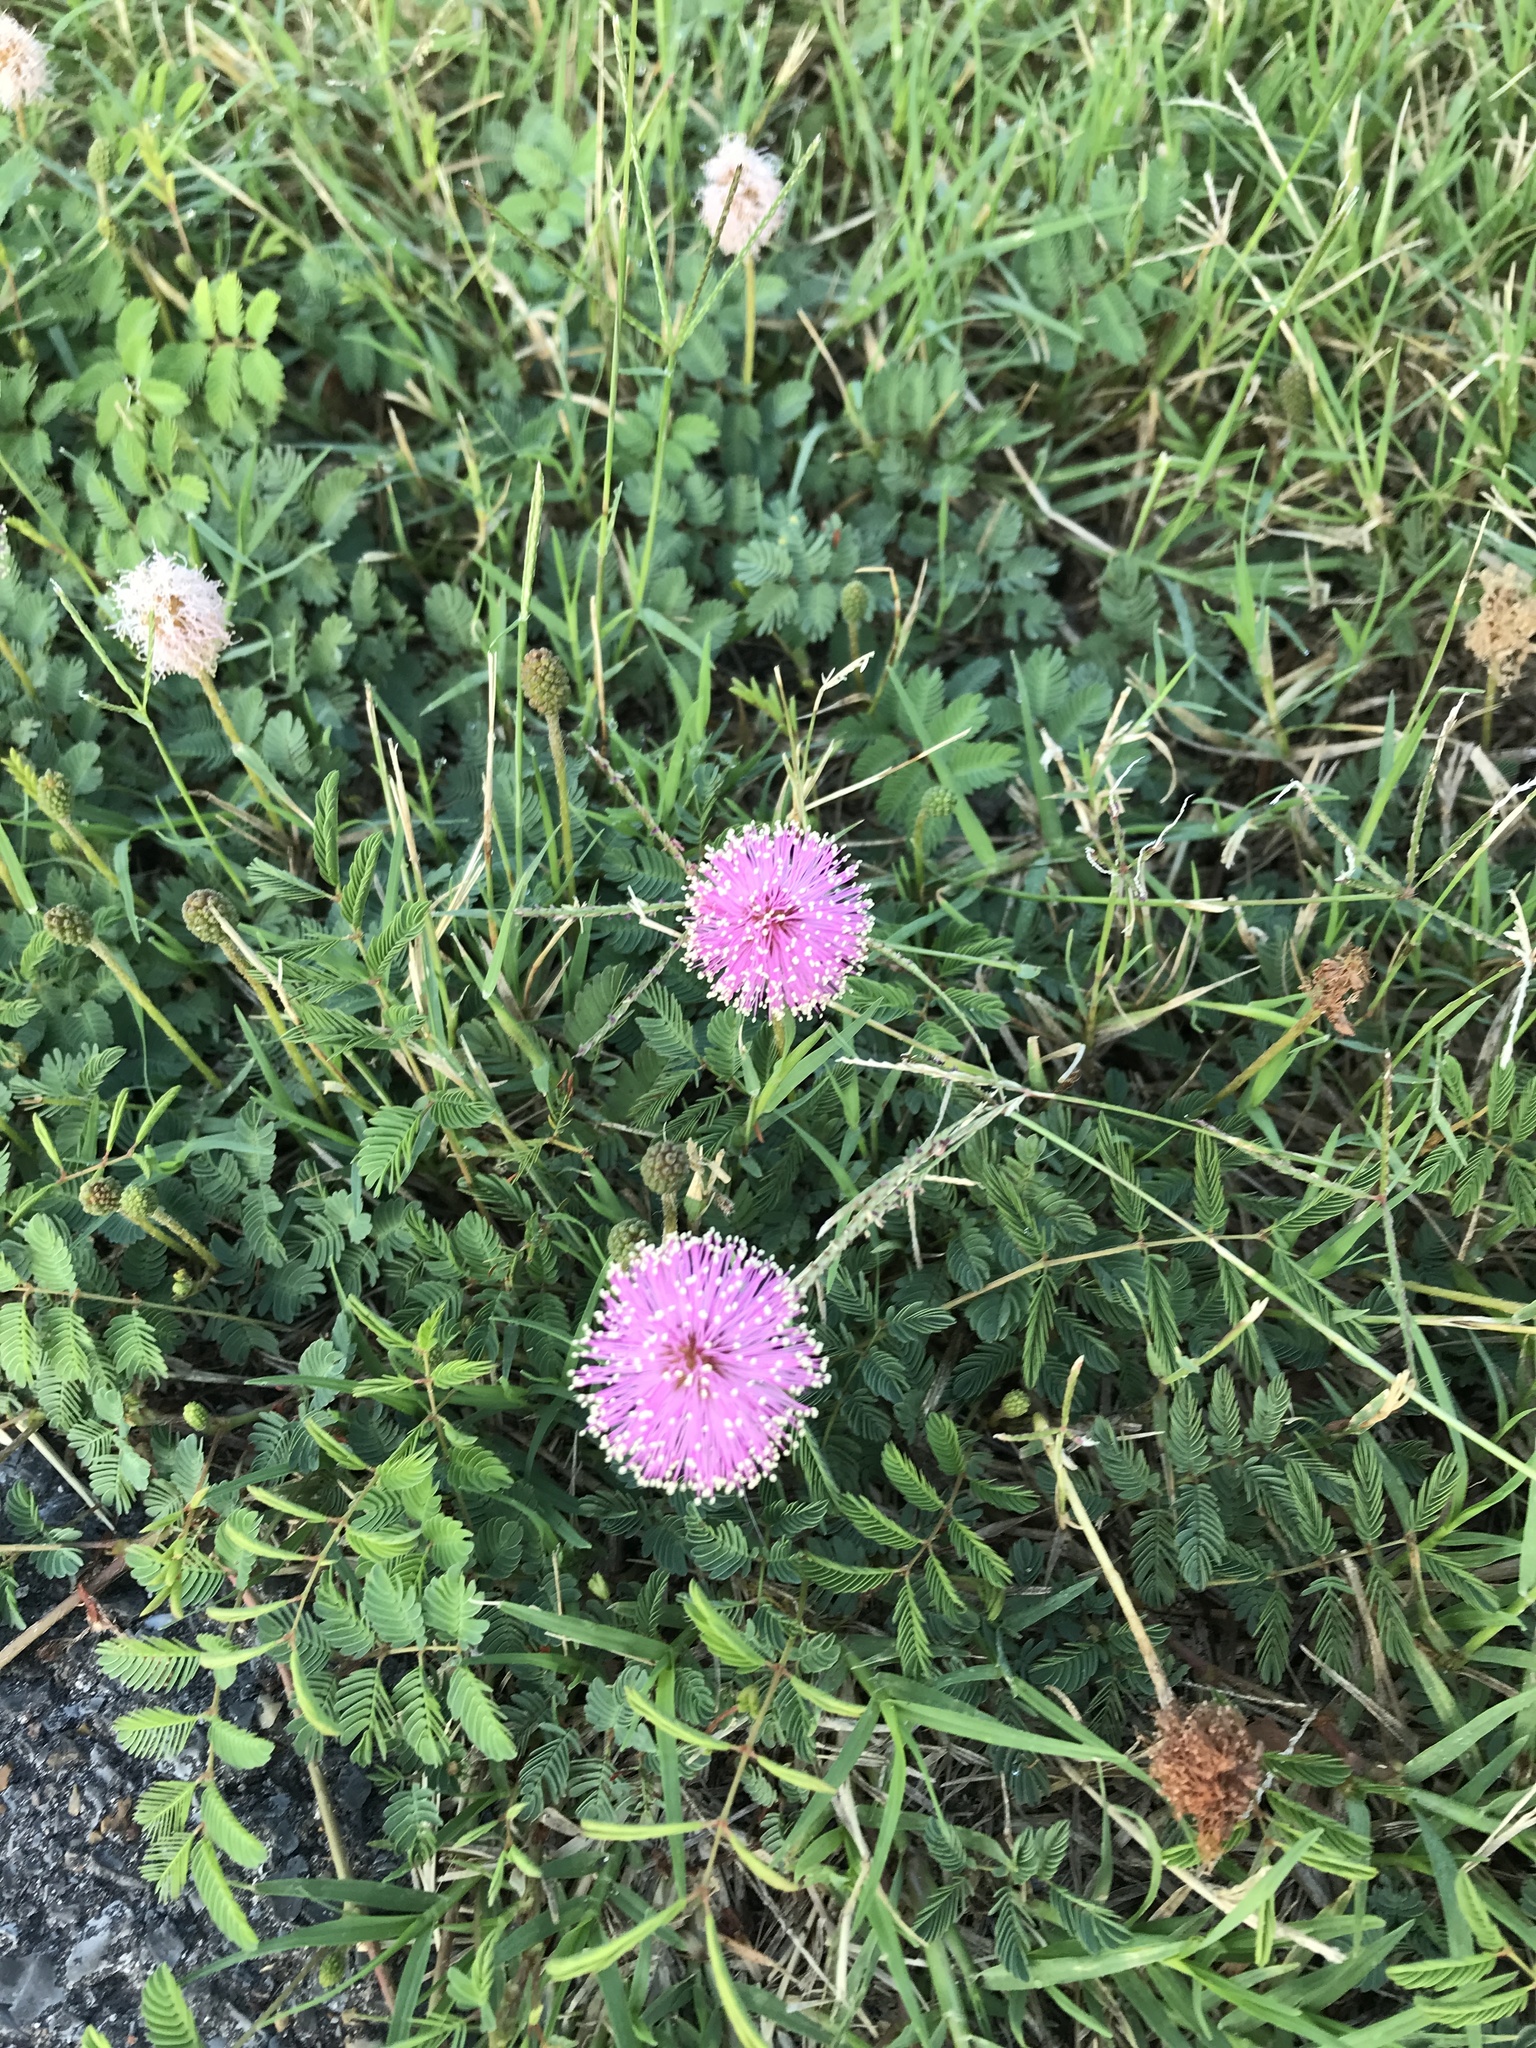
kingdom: Plantae
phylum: Tracheophyta
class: Magnoliopsida
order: Fabales
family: Fabaceae
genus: Mimosa
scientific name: Mimosa strigillosa
